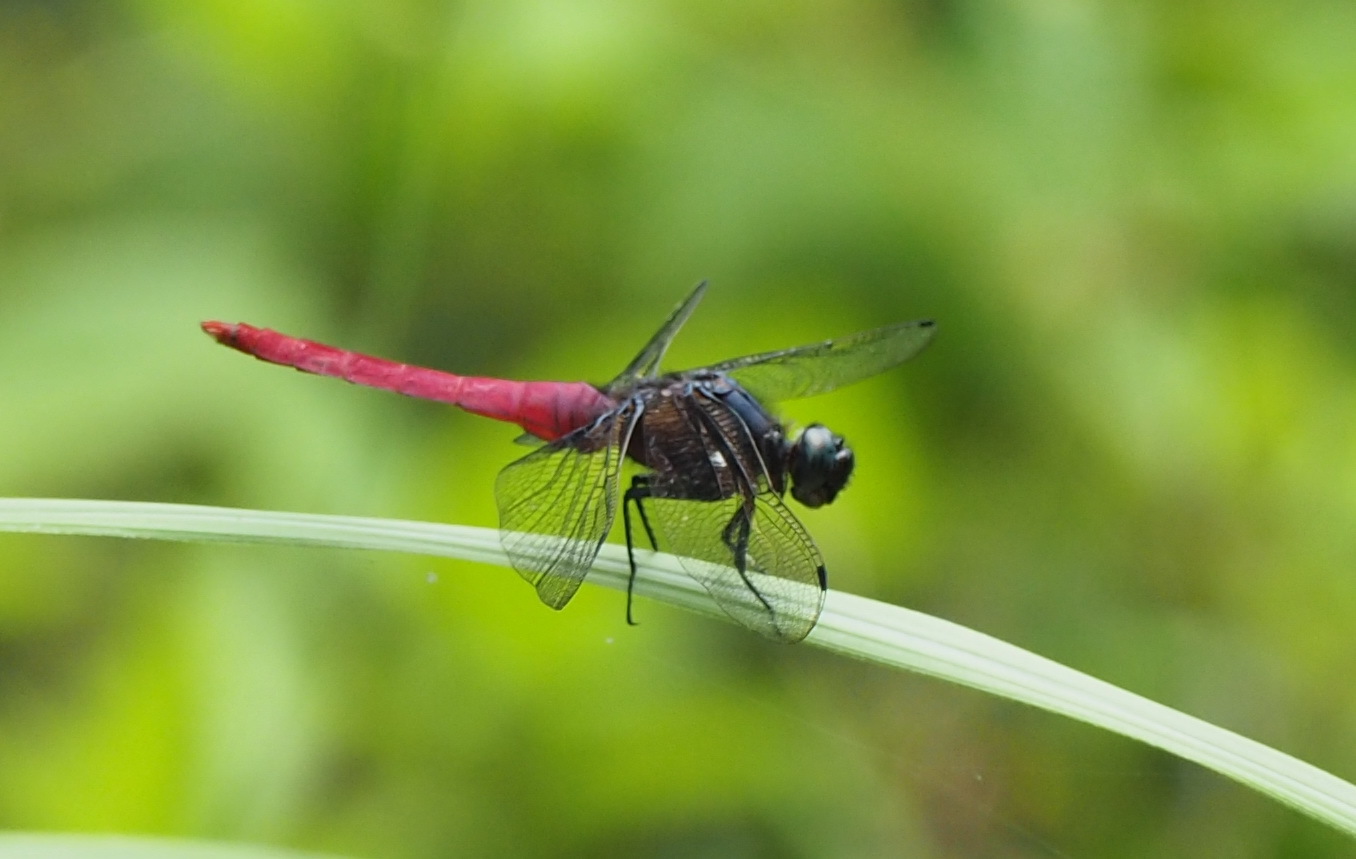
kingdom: Animalia
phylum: Arthropoda
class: Insecta
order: Odonata
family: Libellulidae
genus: Orthetrum
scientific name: Orthetrum pruinosum
